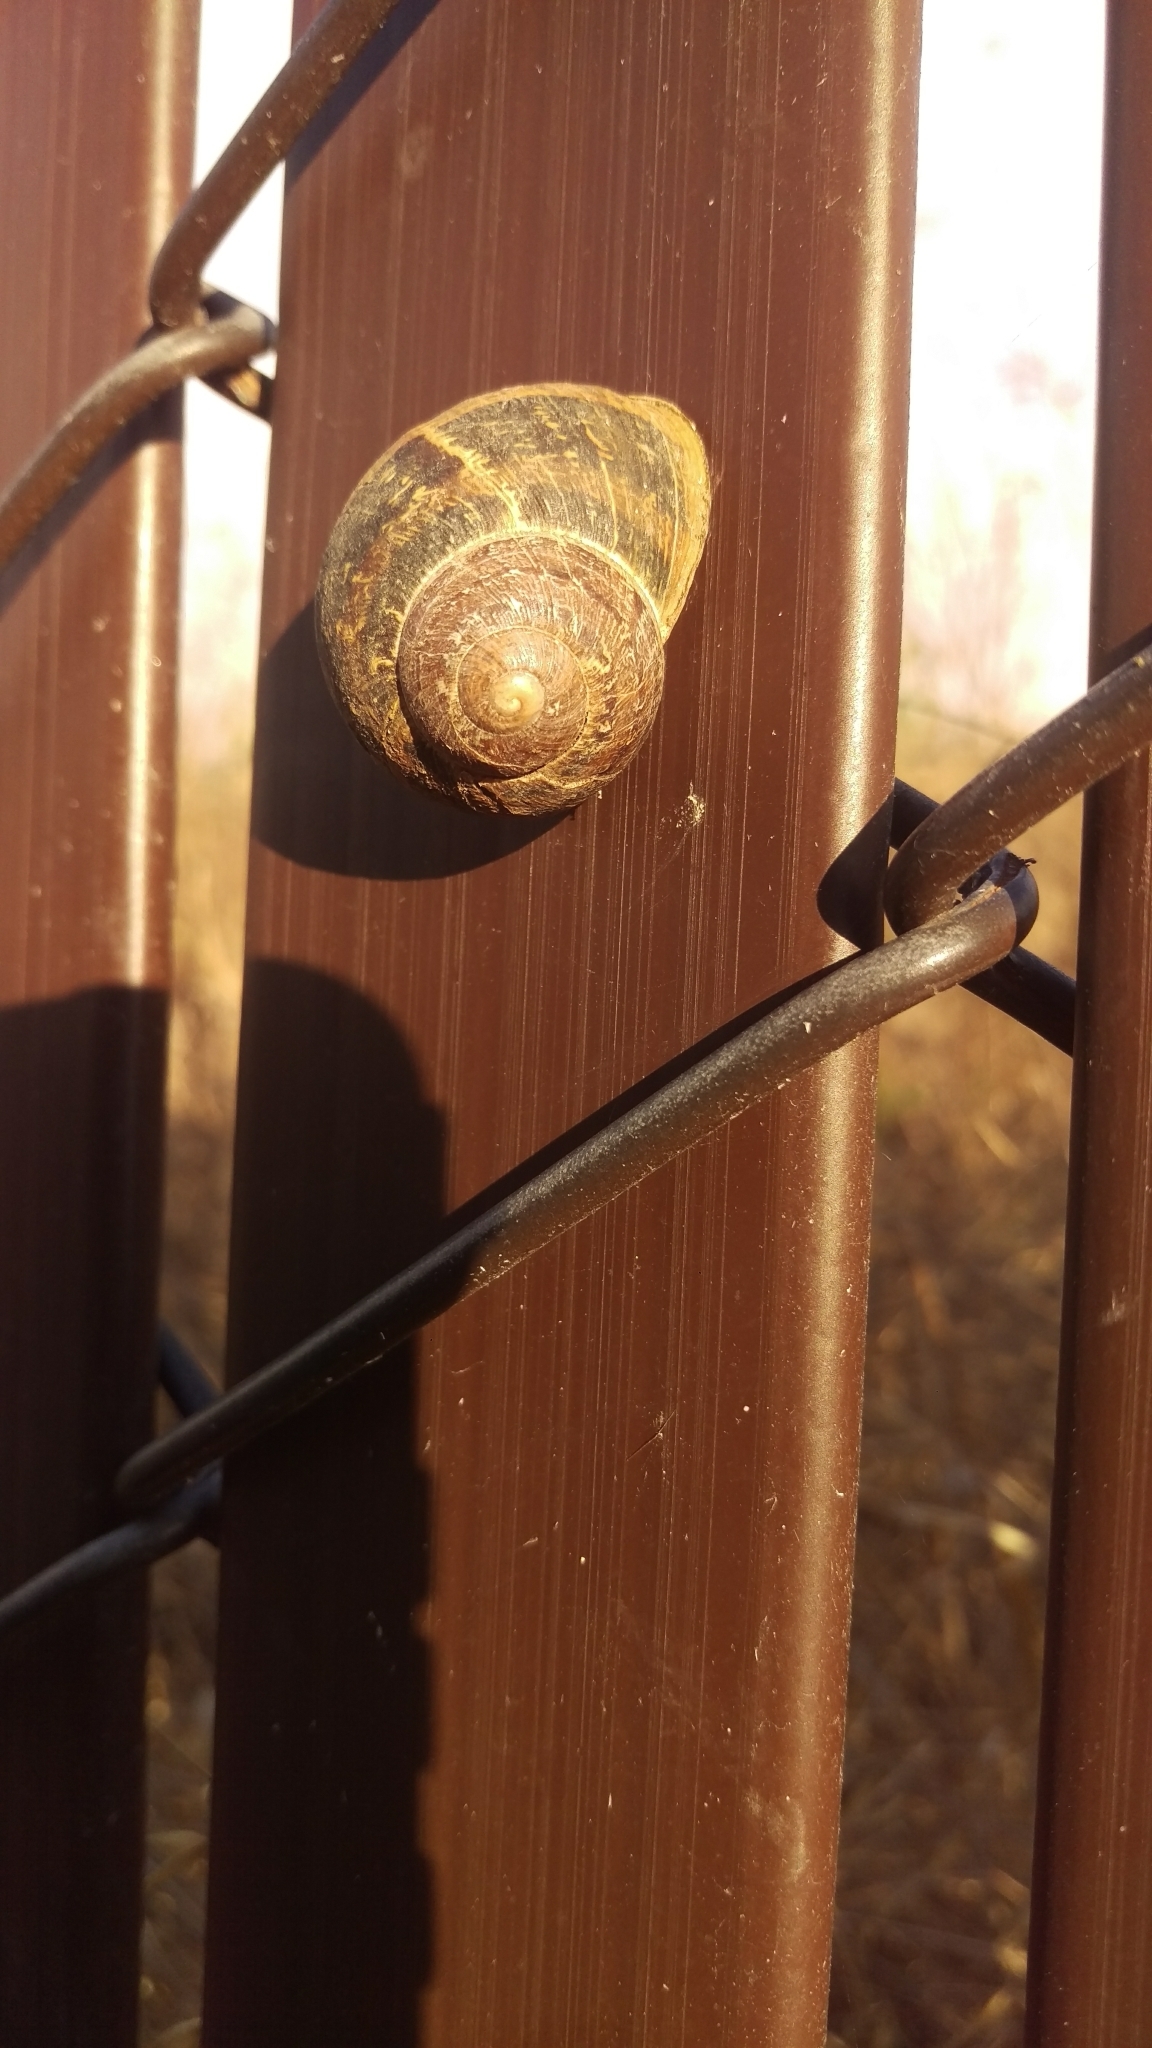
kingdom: Animalia
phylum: Mollusca
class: Gastropoda
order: Stylommatophora
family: Helicidae
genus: Cornu
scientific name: Cornu aspersum
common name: Brown garden snail
